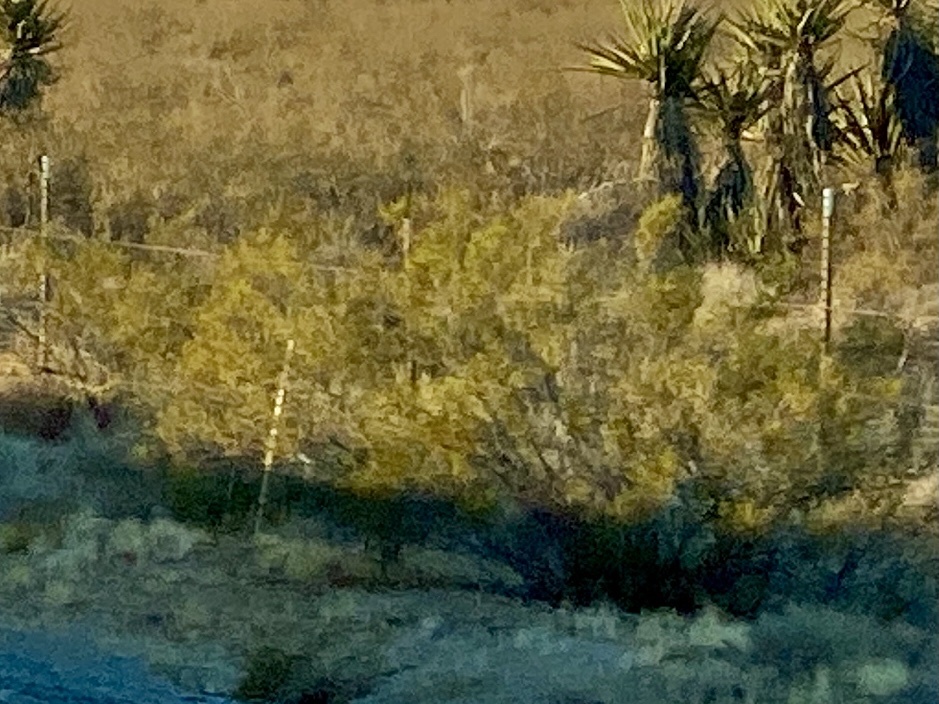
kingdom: Plantae
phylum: Tracheophyta
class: Magnoliopsida
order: Zygophyllales
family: Zygophyllaceae
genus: Larrea
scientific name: Larrea tridentata
